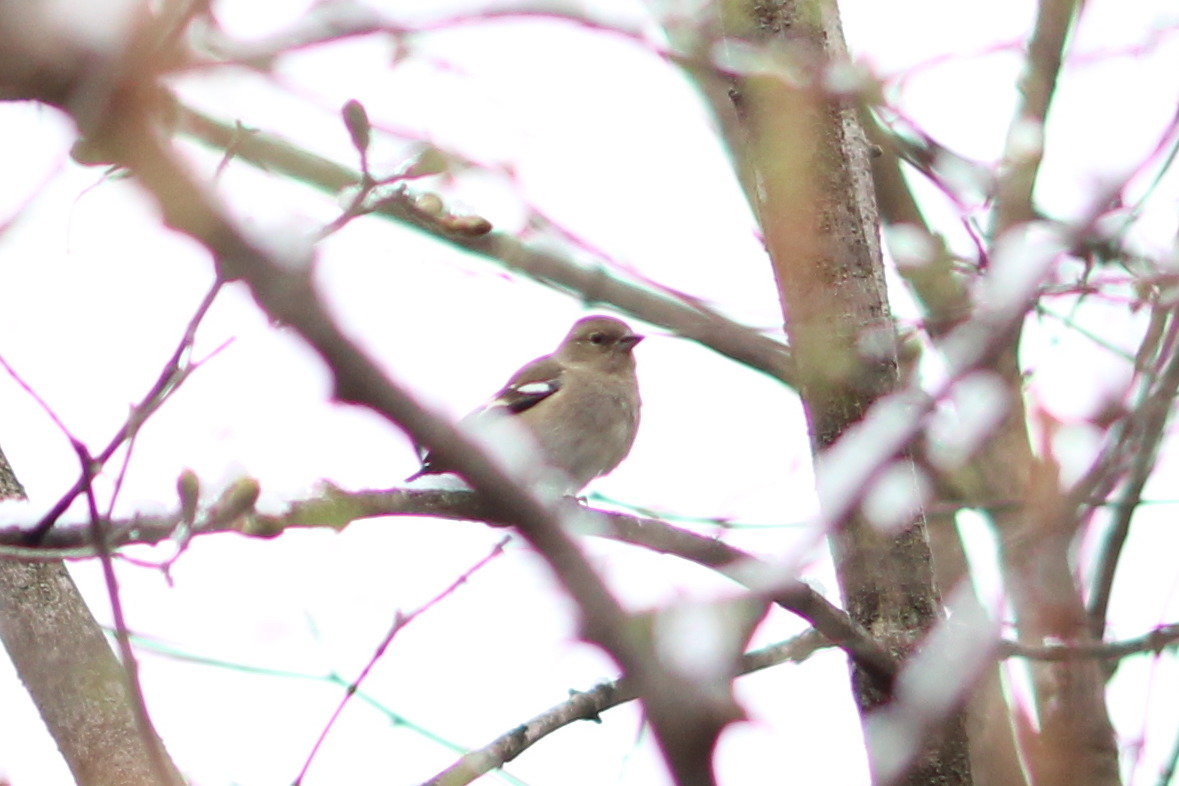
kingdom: Animalia
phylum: Chordata
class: Aves
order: Passeriformes
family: Fringillidae
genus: Fringilla
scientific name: Fringilla coelebs
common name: Common chaffinch
